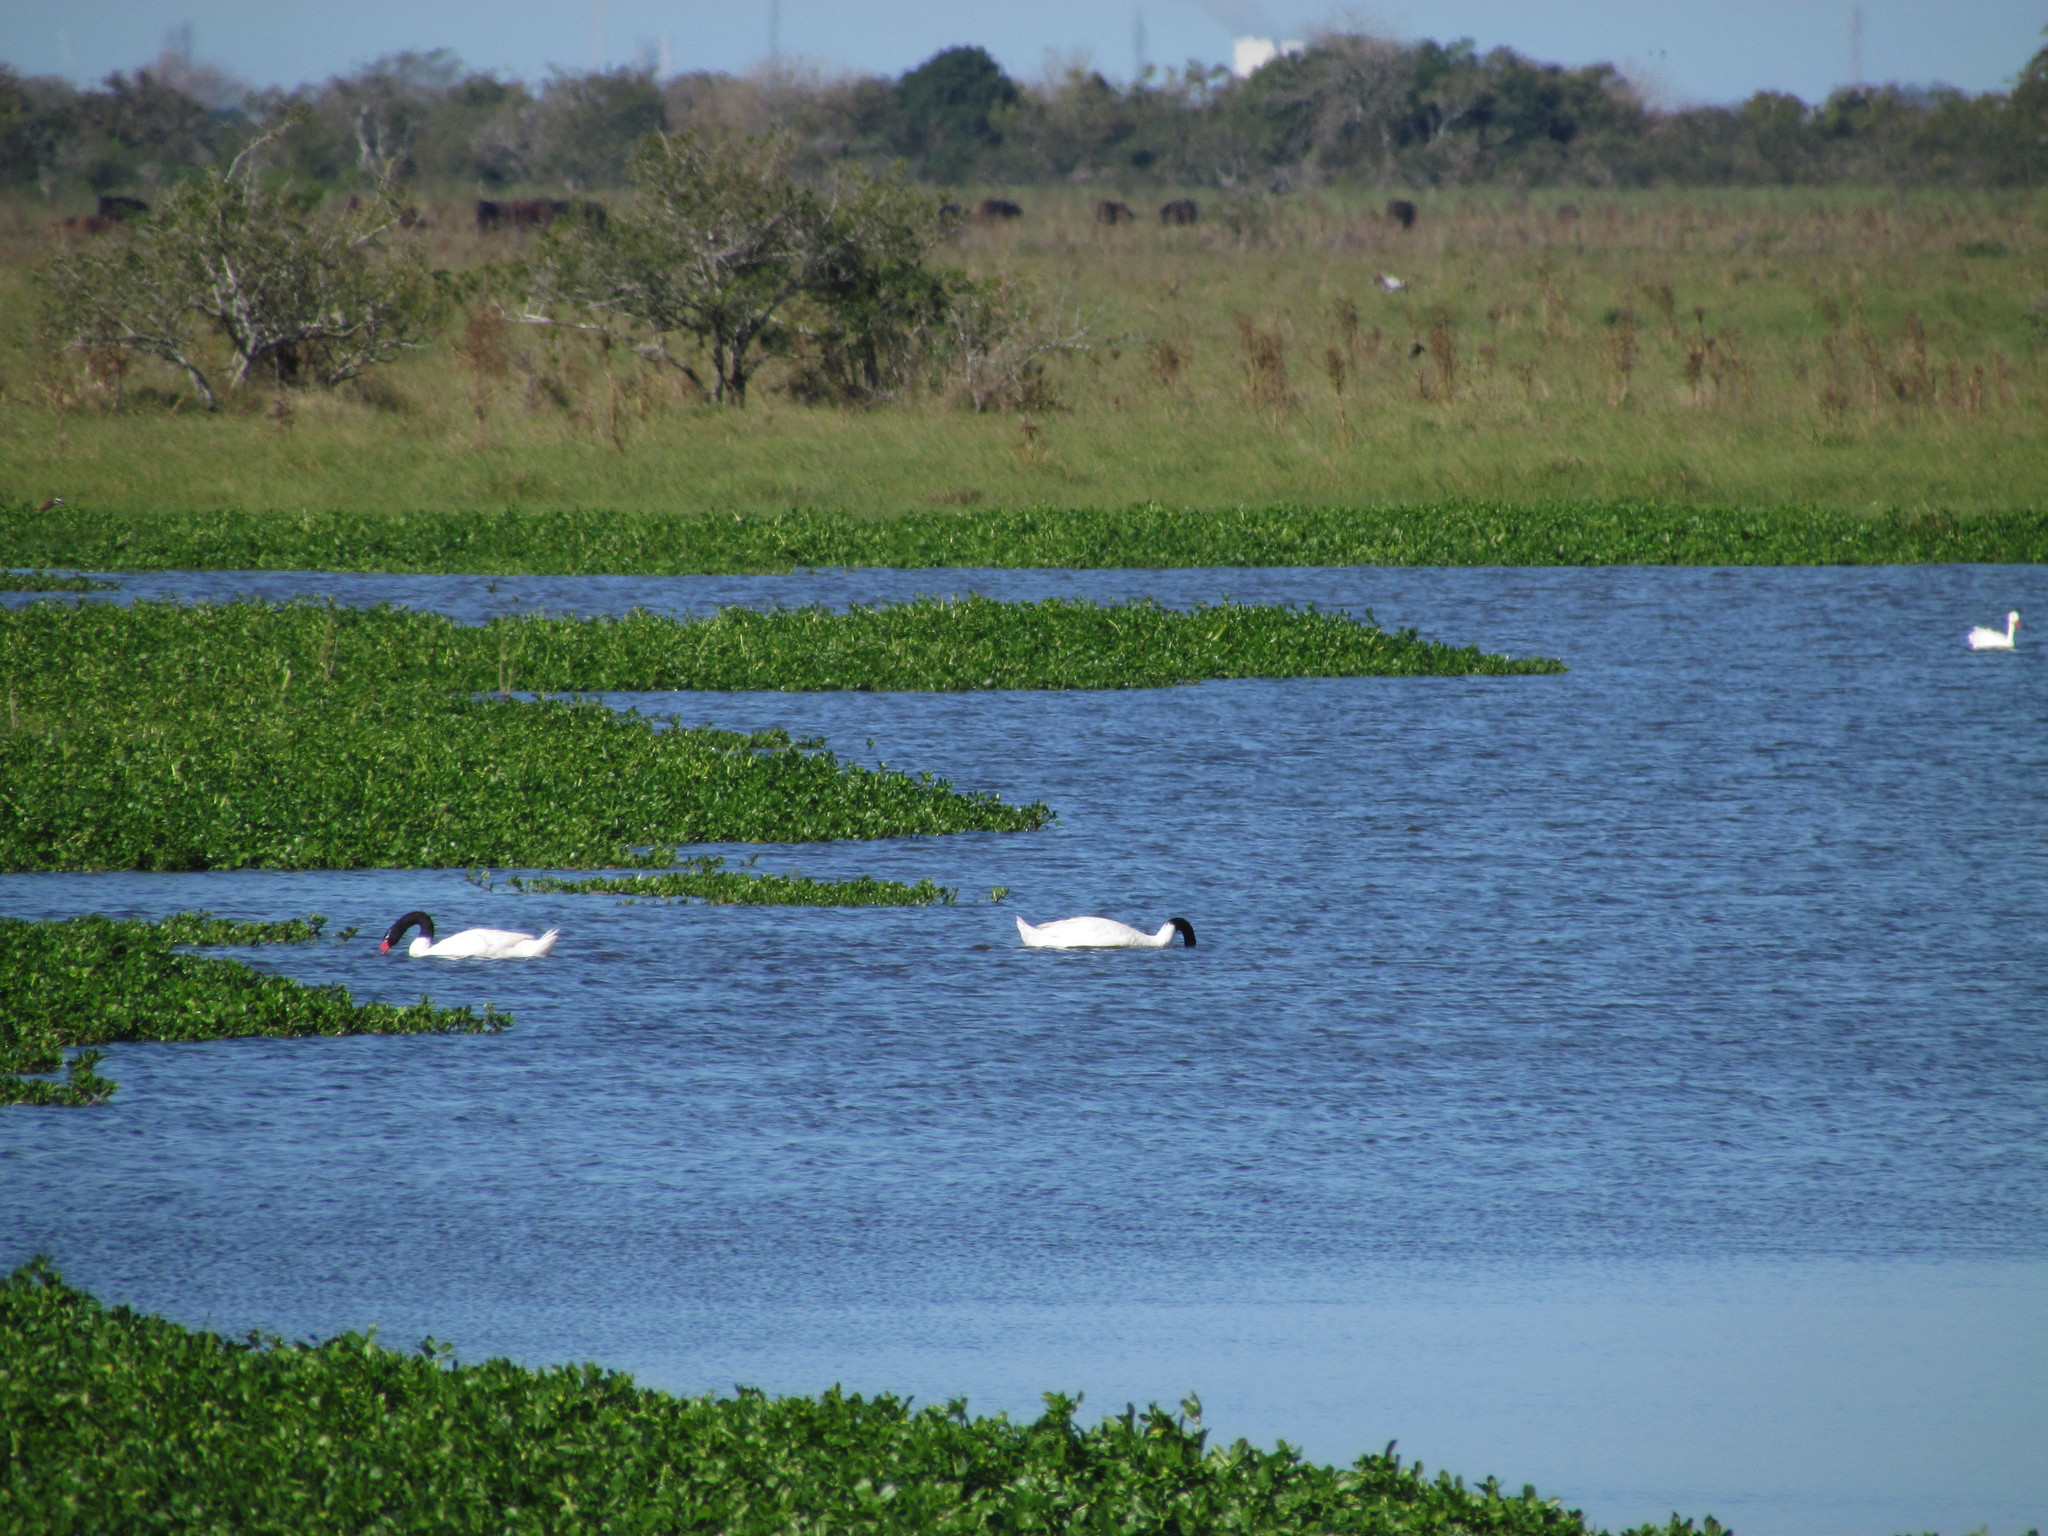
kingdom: Animalia
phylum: Chordata
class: Aves
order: Anseriformes
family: Anatidae
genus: Cygnus
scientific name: Cygnus melancoryphus
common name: Black-necked swan
